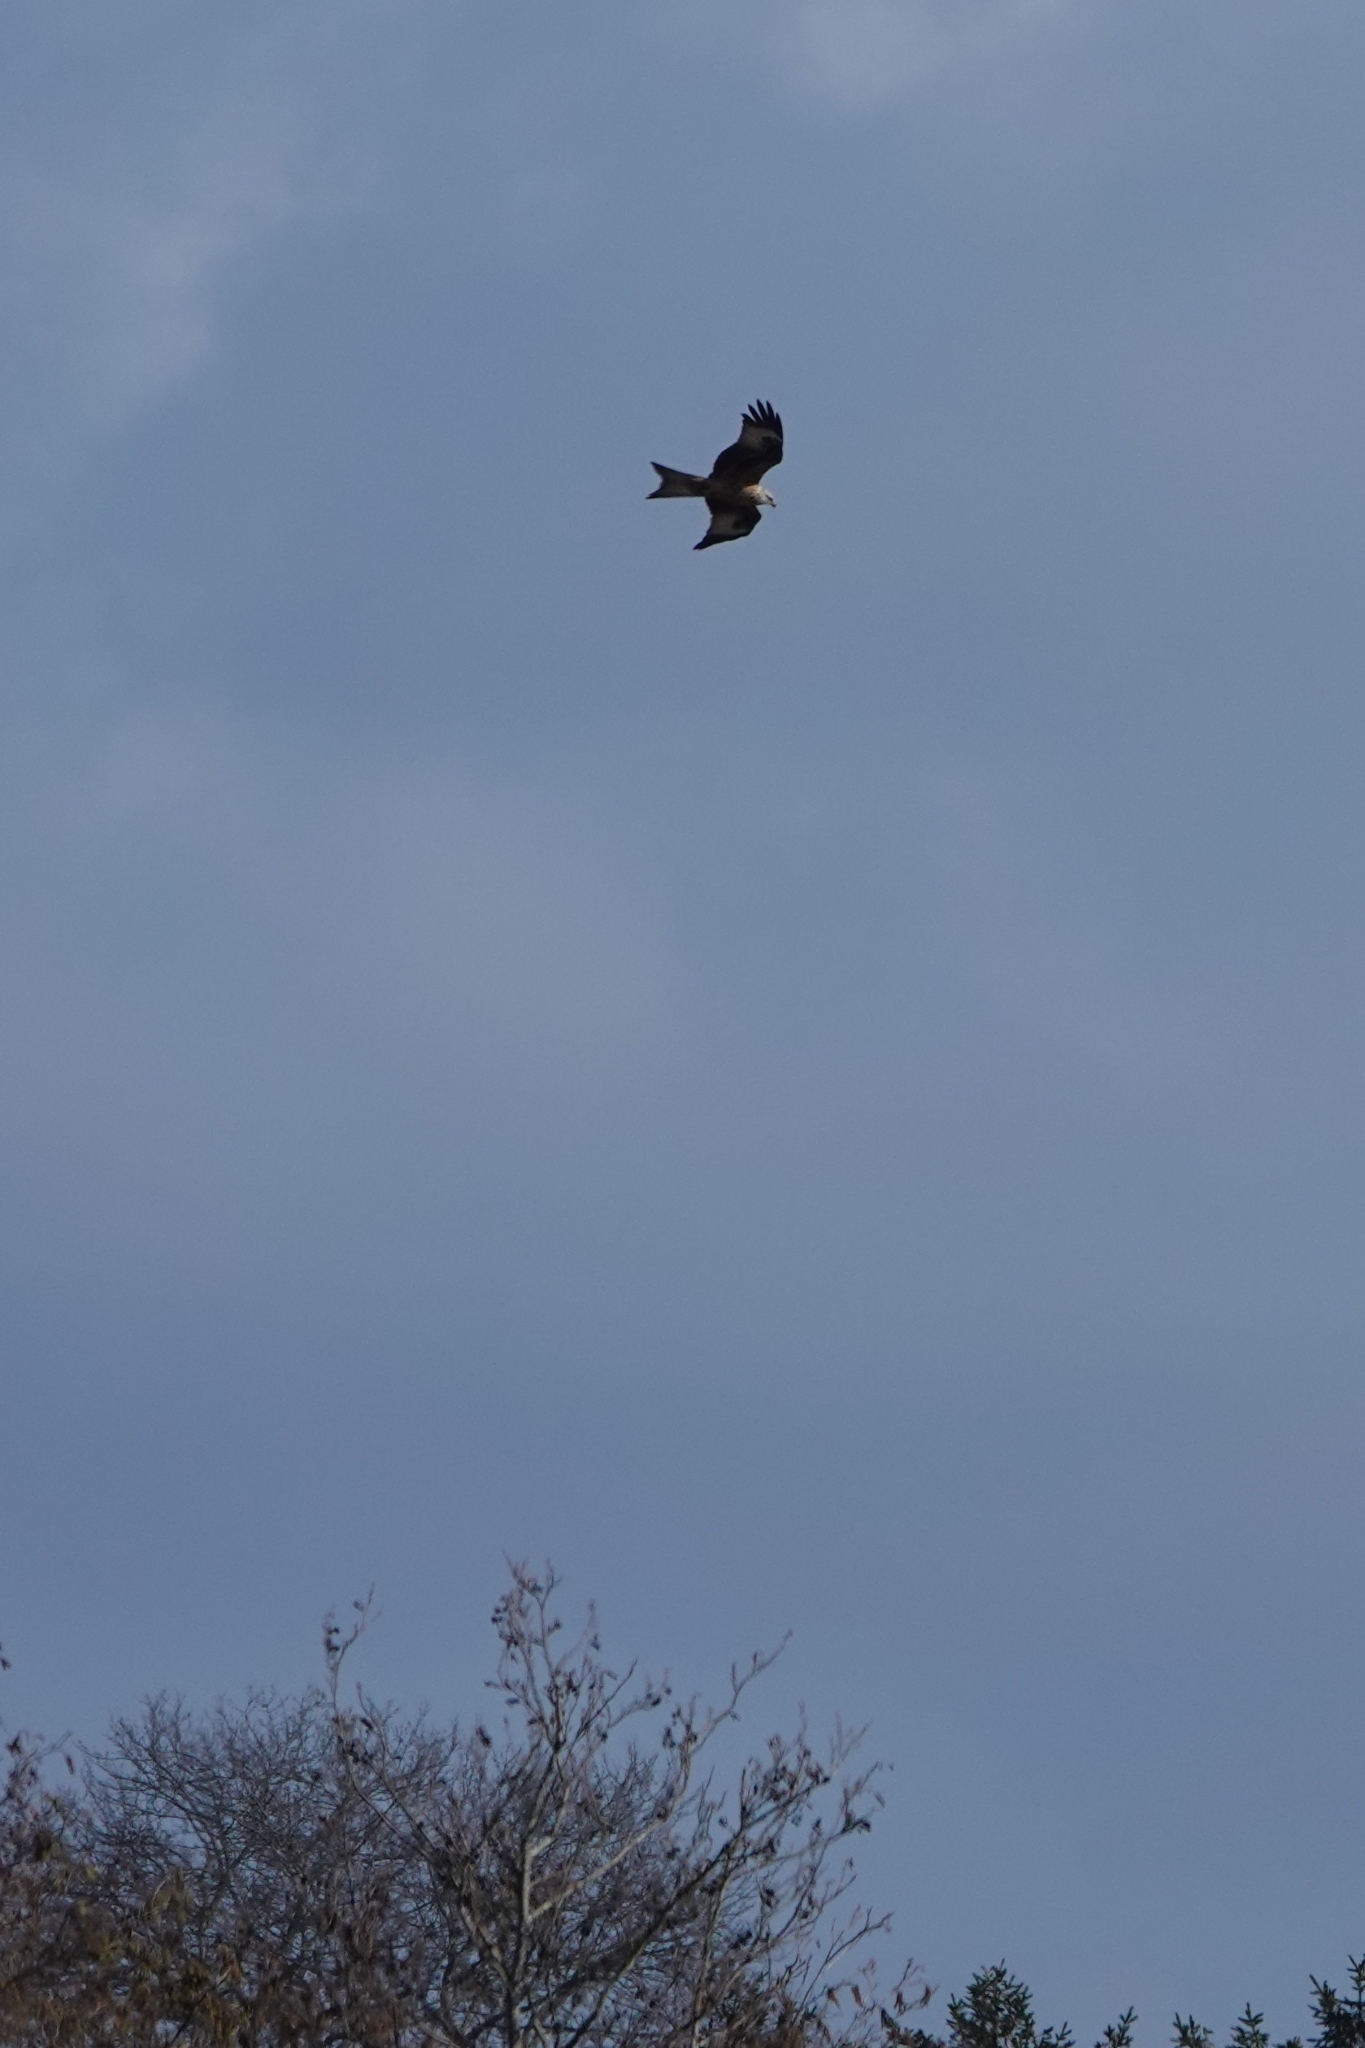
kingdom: Animalia
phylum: Chordata
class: Aves
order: Accipitriformes
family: Accipitridae
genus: Milvus
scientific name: Milvus milvus
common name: Red kite
